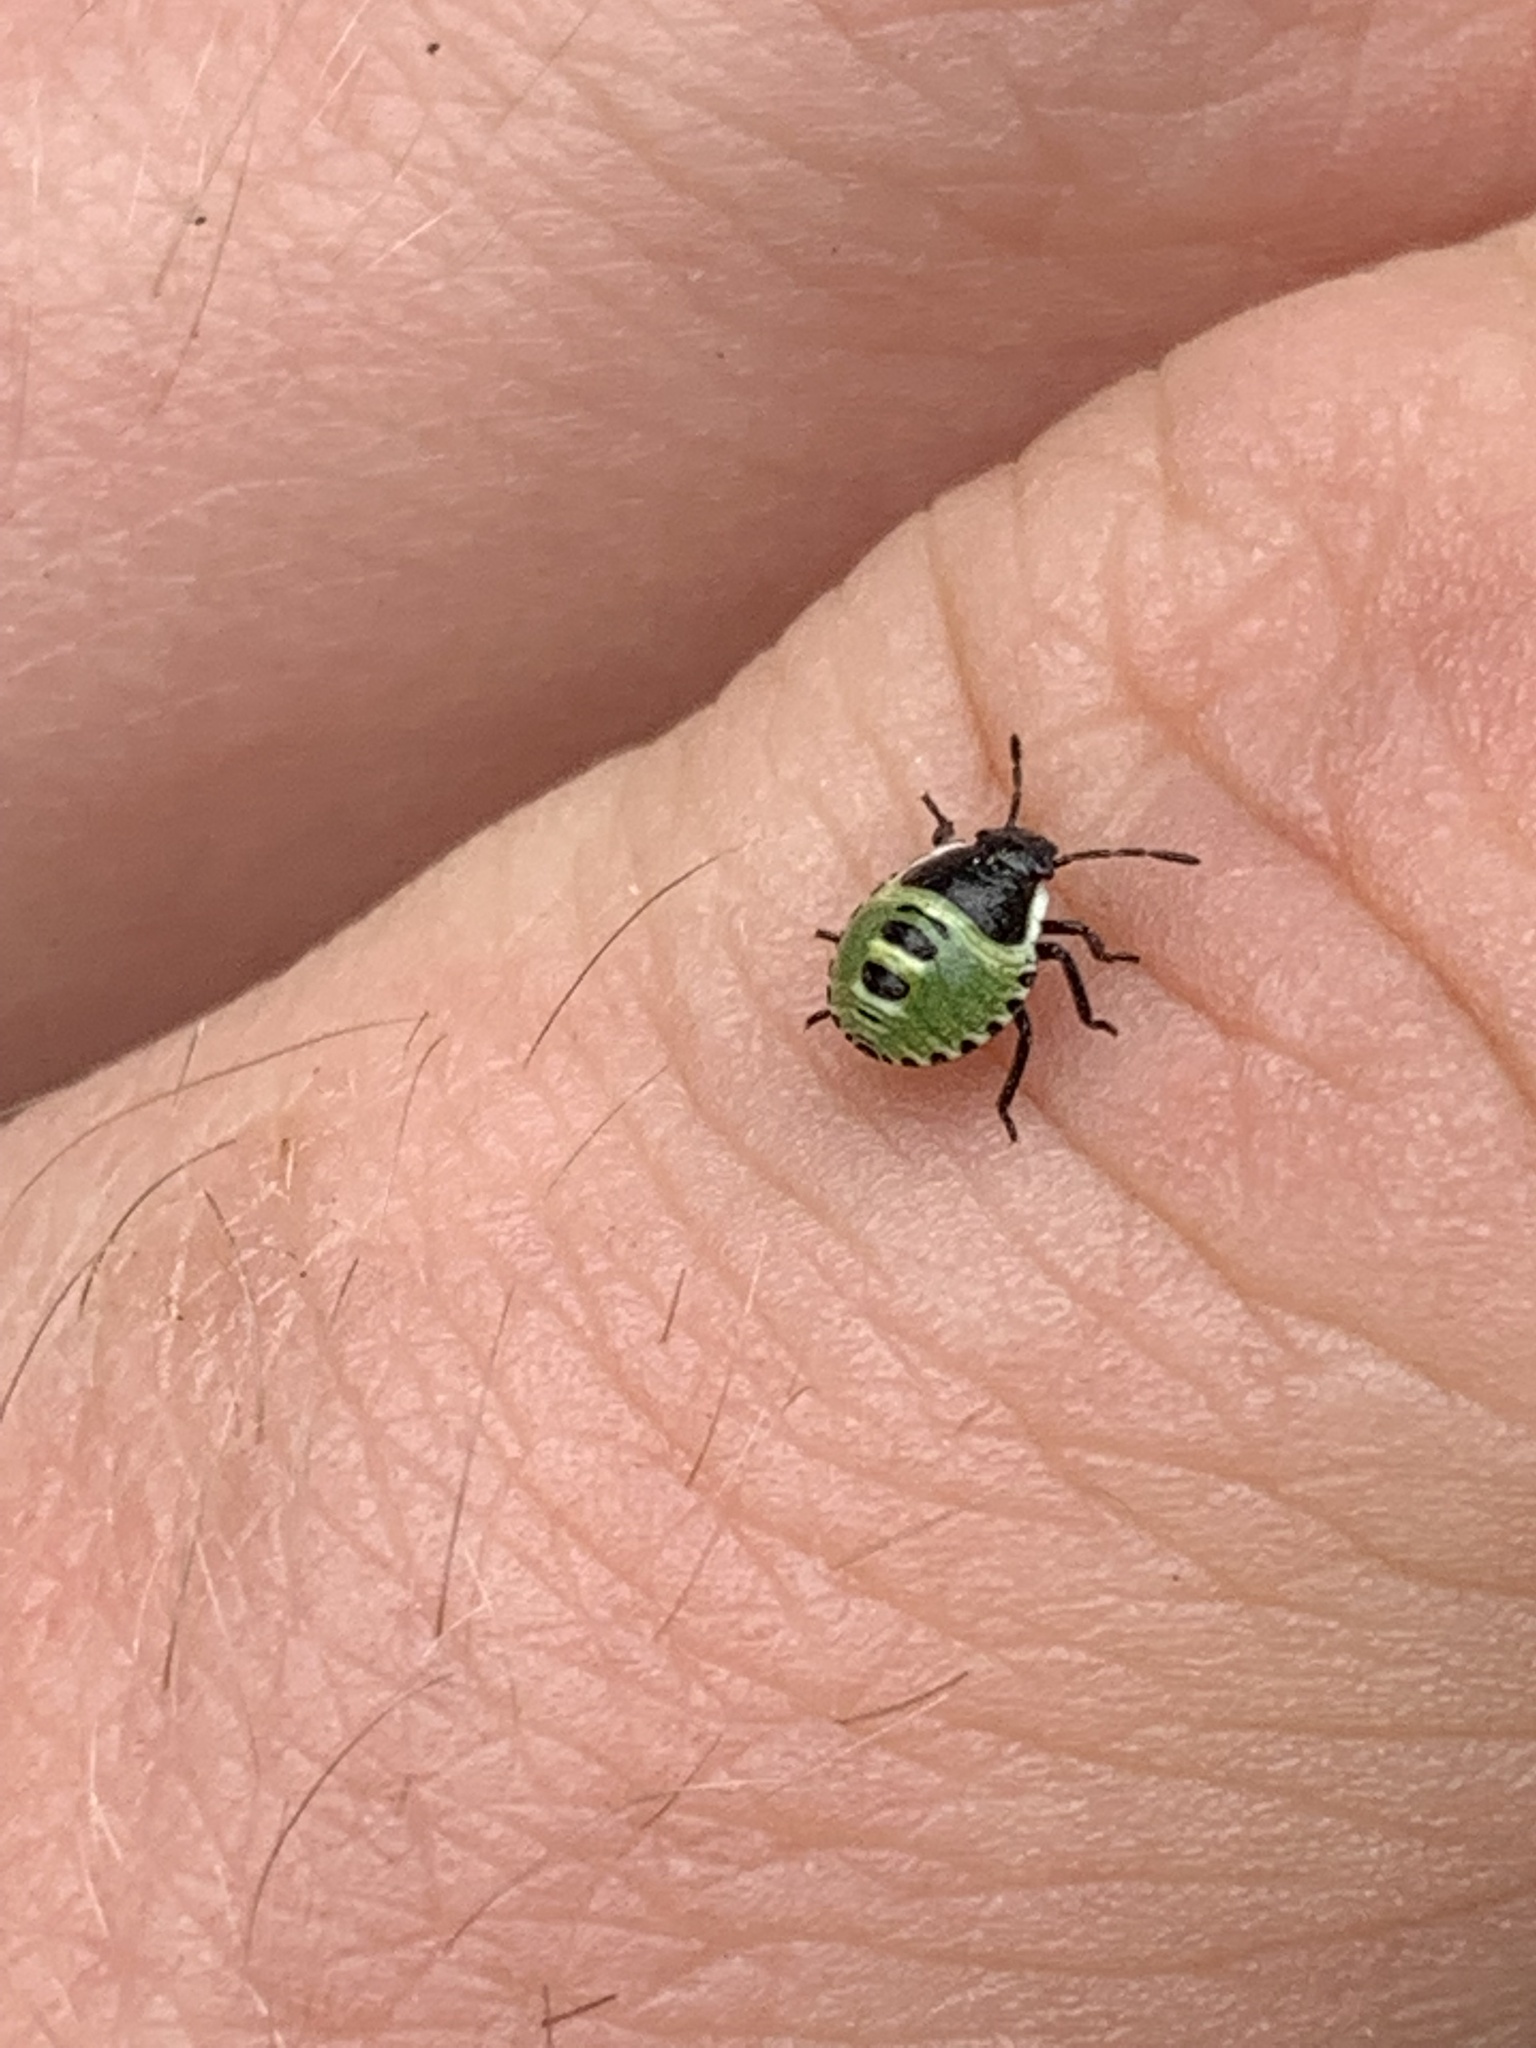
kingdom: Animalia
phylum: Arthropoda
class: Insecta
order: Hemiptera
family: Pentatomidae
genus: Palomena
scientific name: Palomena prasina
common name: Green shieldbug
